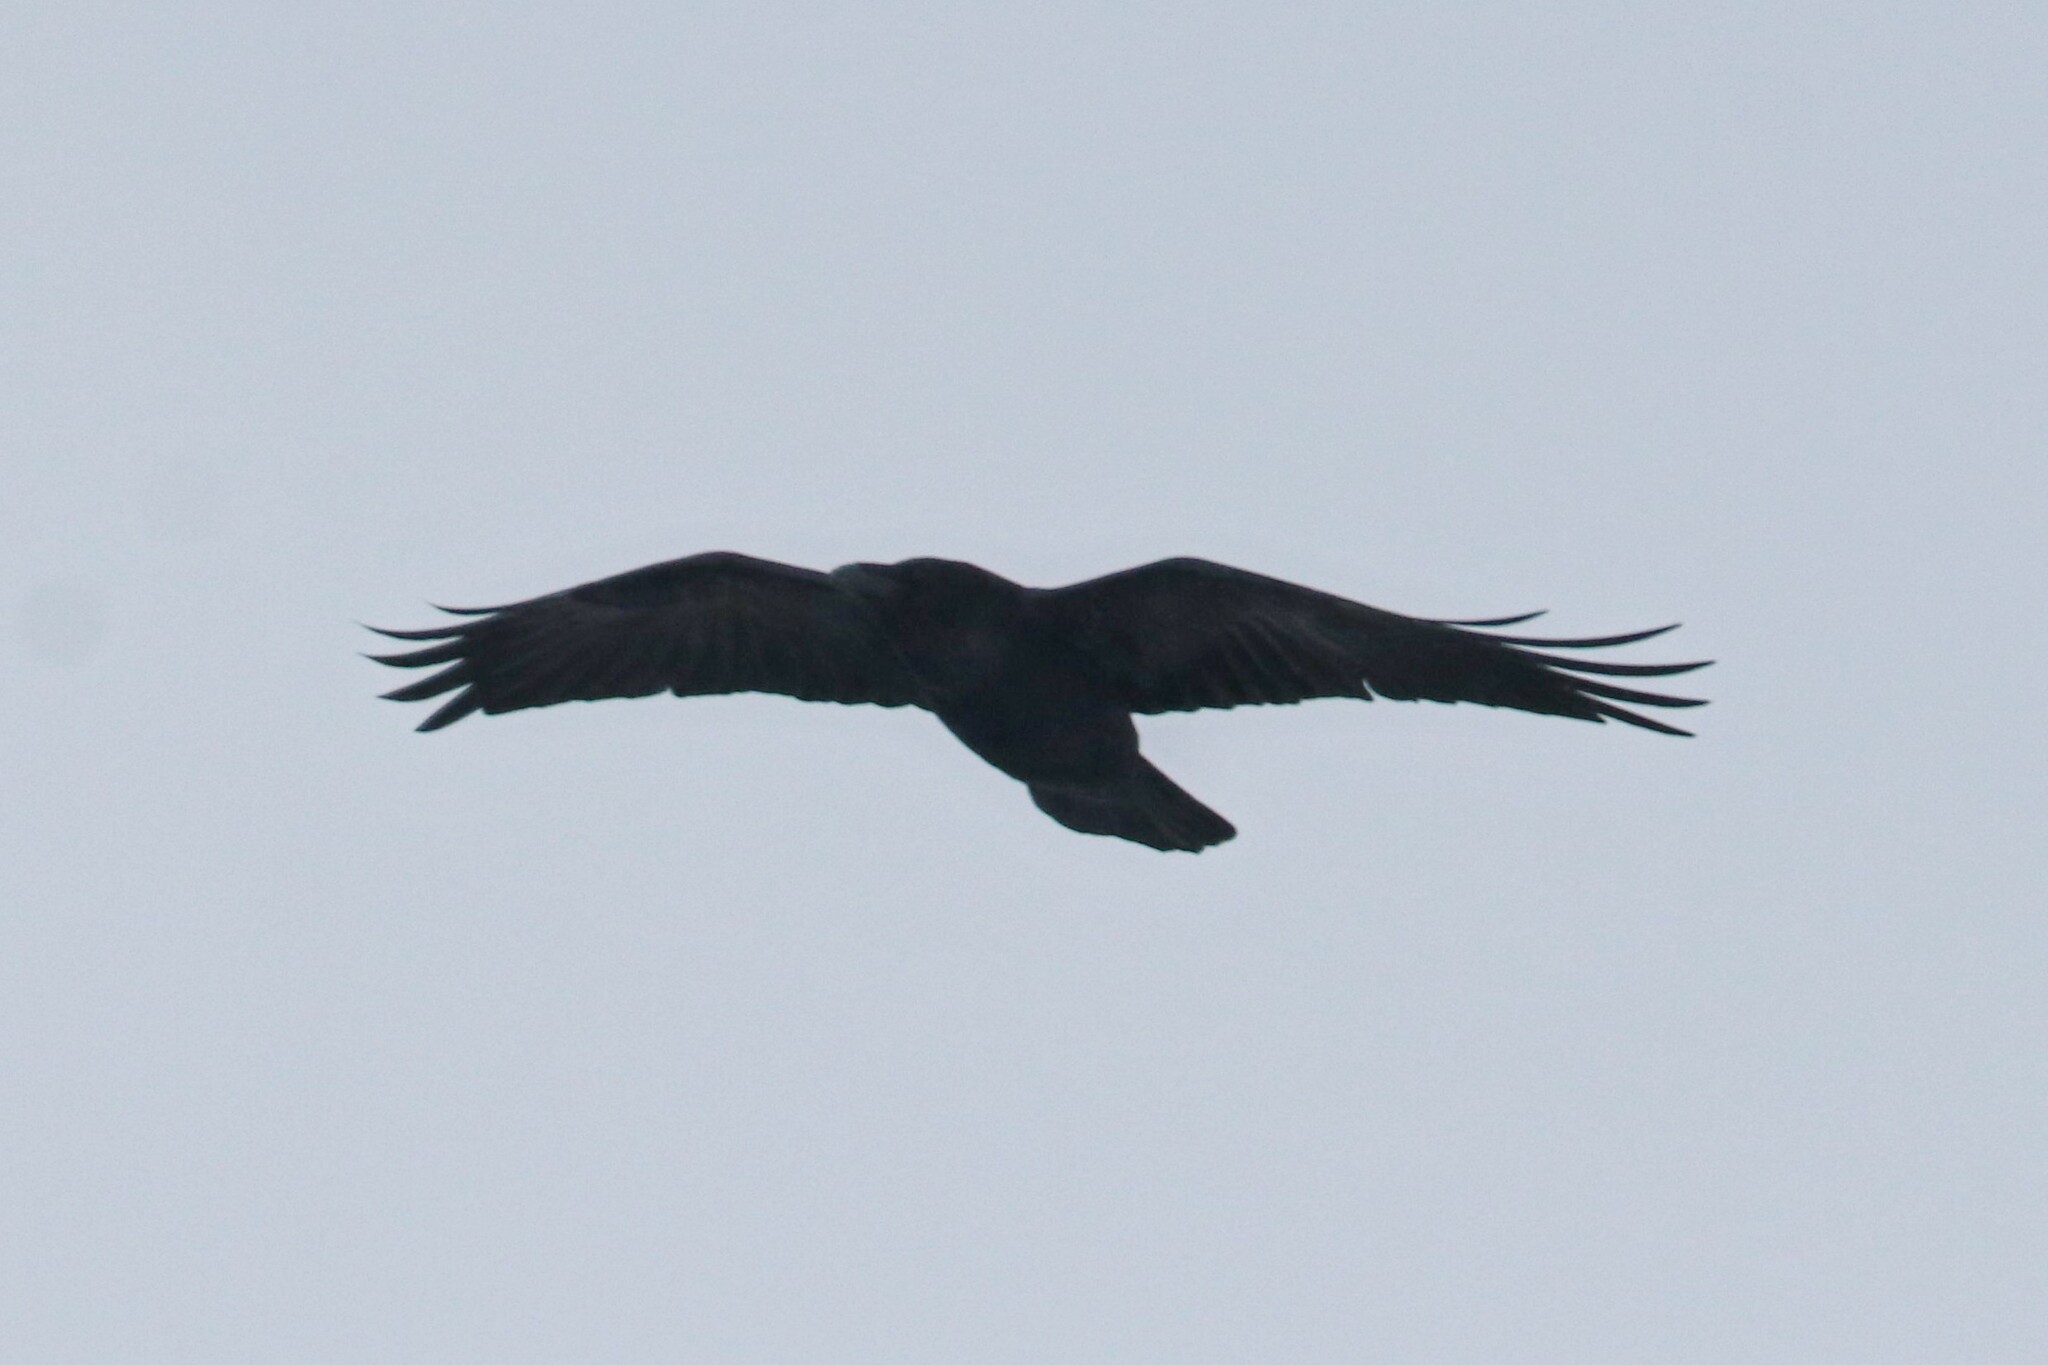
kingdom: Animalia
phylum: Chordata
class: Aves
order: Passeriformes
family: Corvidae
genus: Corvus
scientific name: Corvus corax
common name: Common raven
